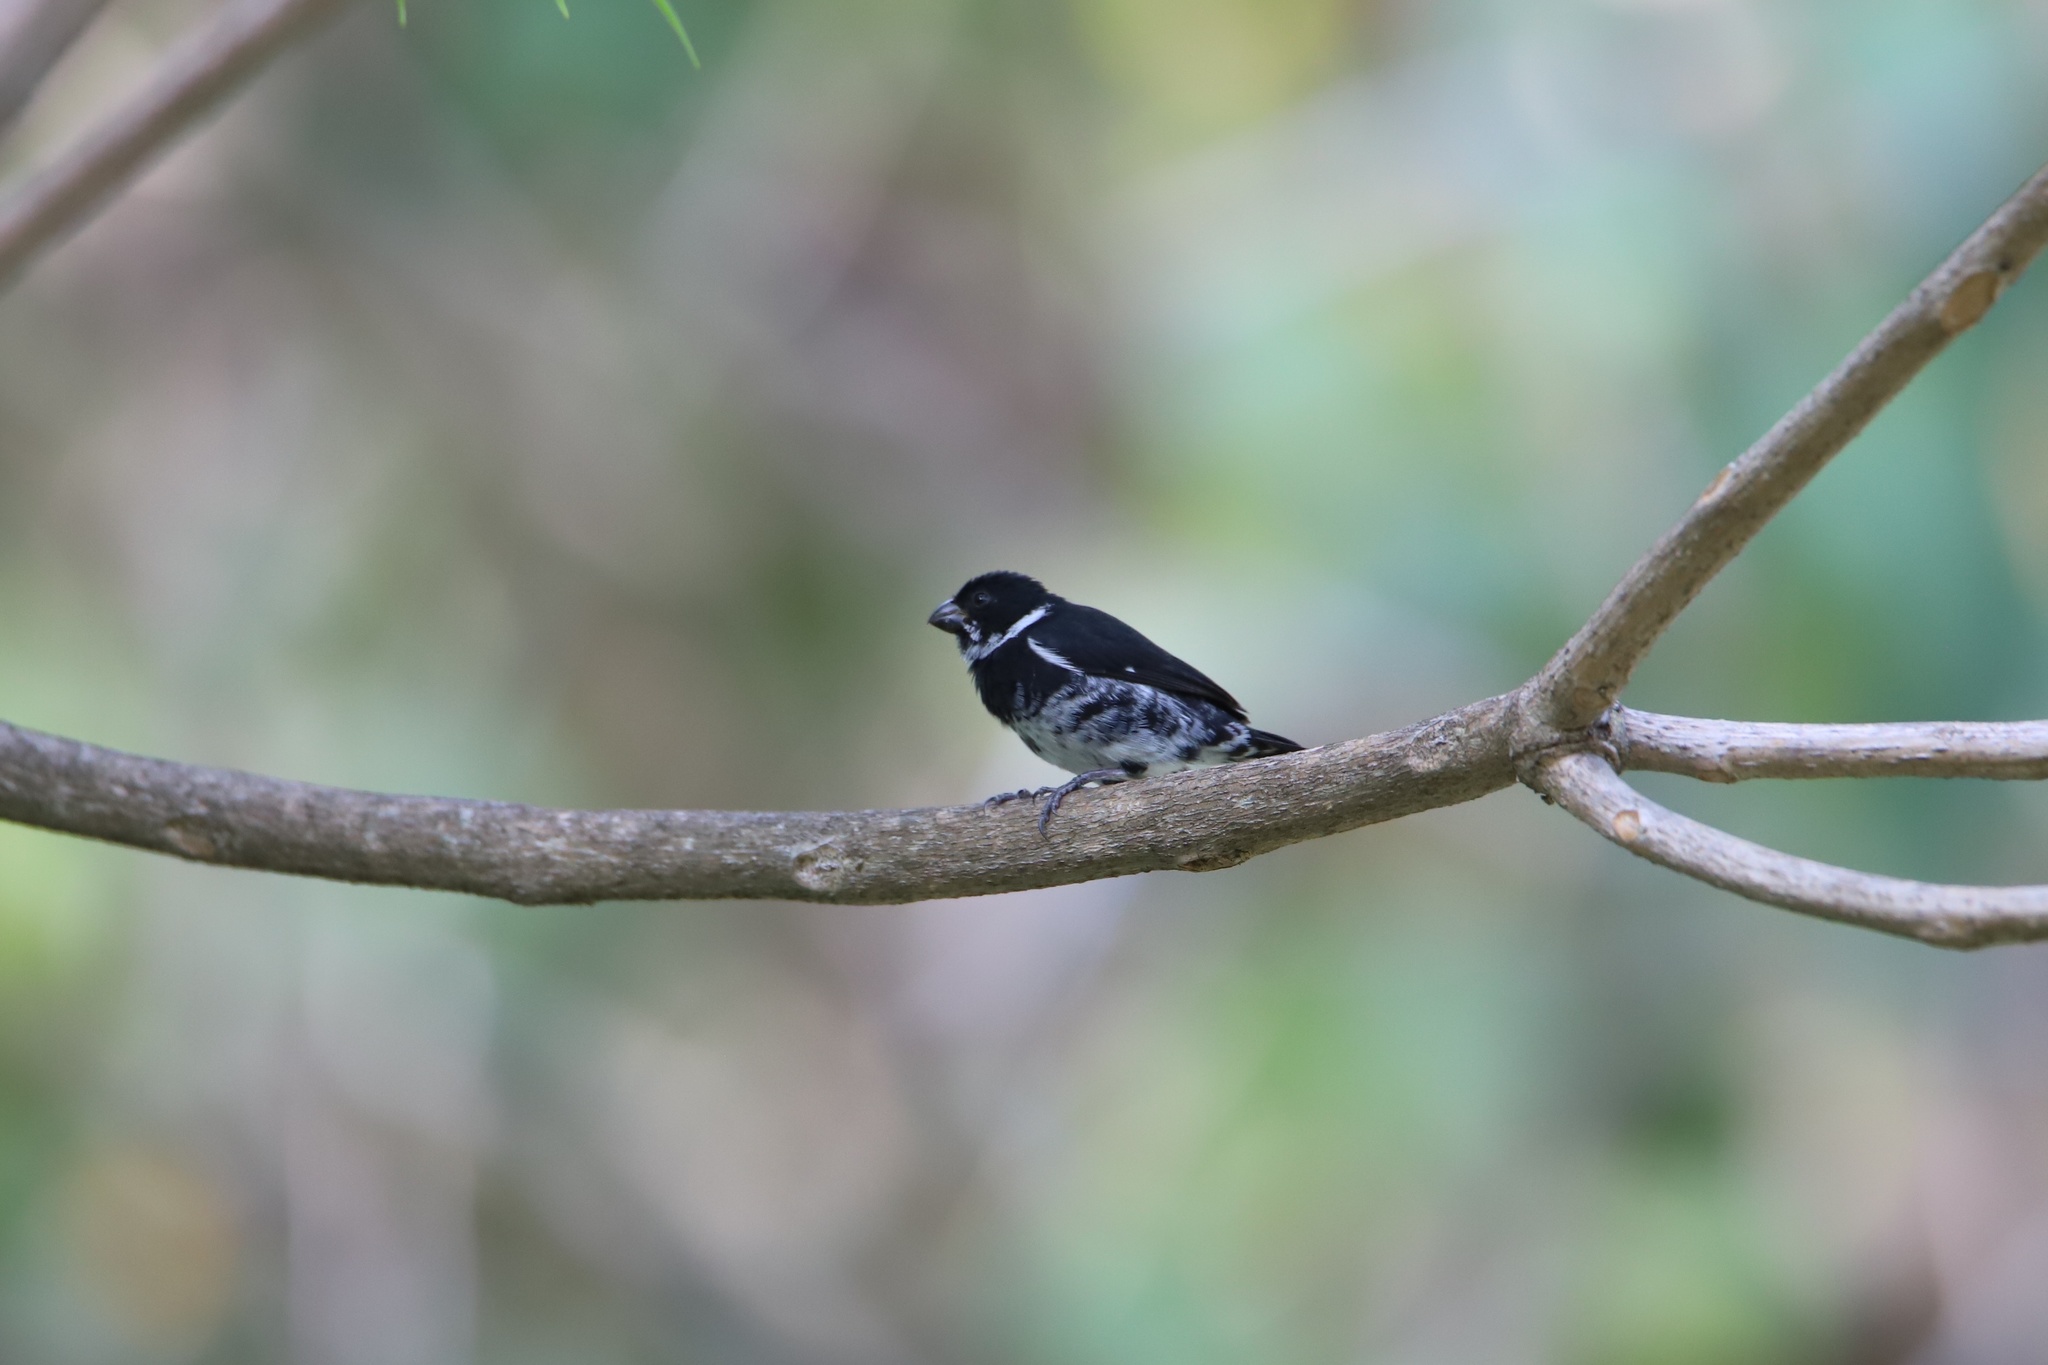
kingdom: Animalia
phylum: Chordata
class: Aves
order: Passeriformes
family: Thraupidae
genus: Sporophila
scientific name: Sporophila corvina
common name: Variable seedeater
